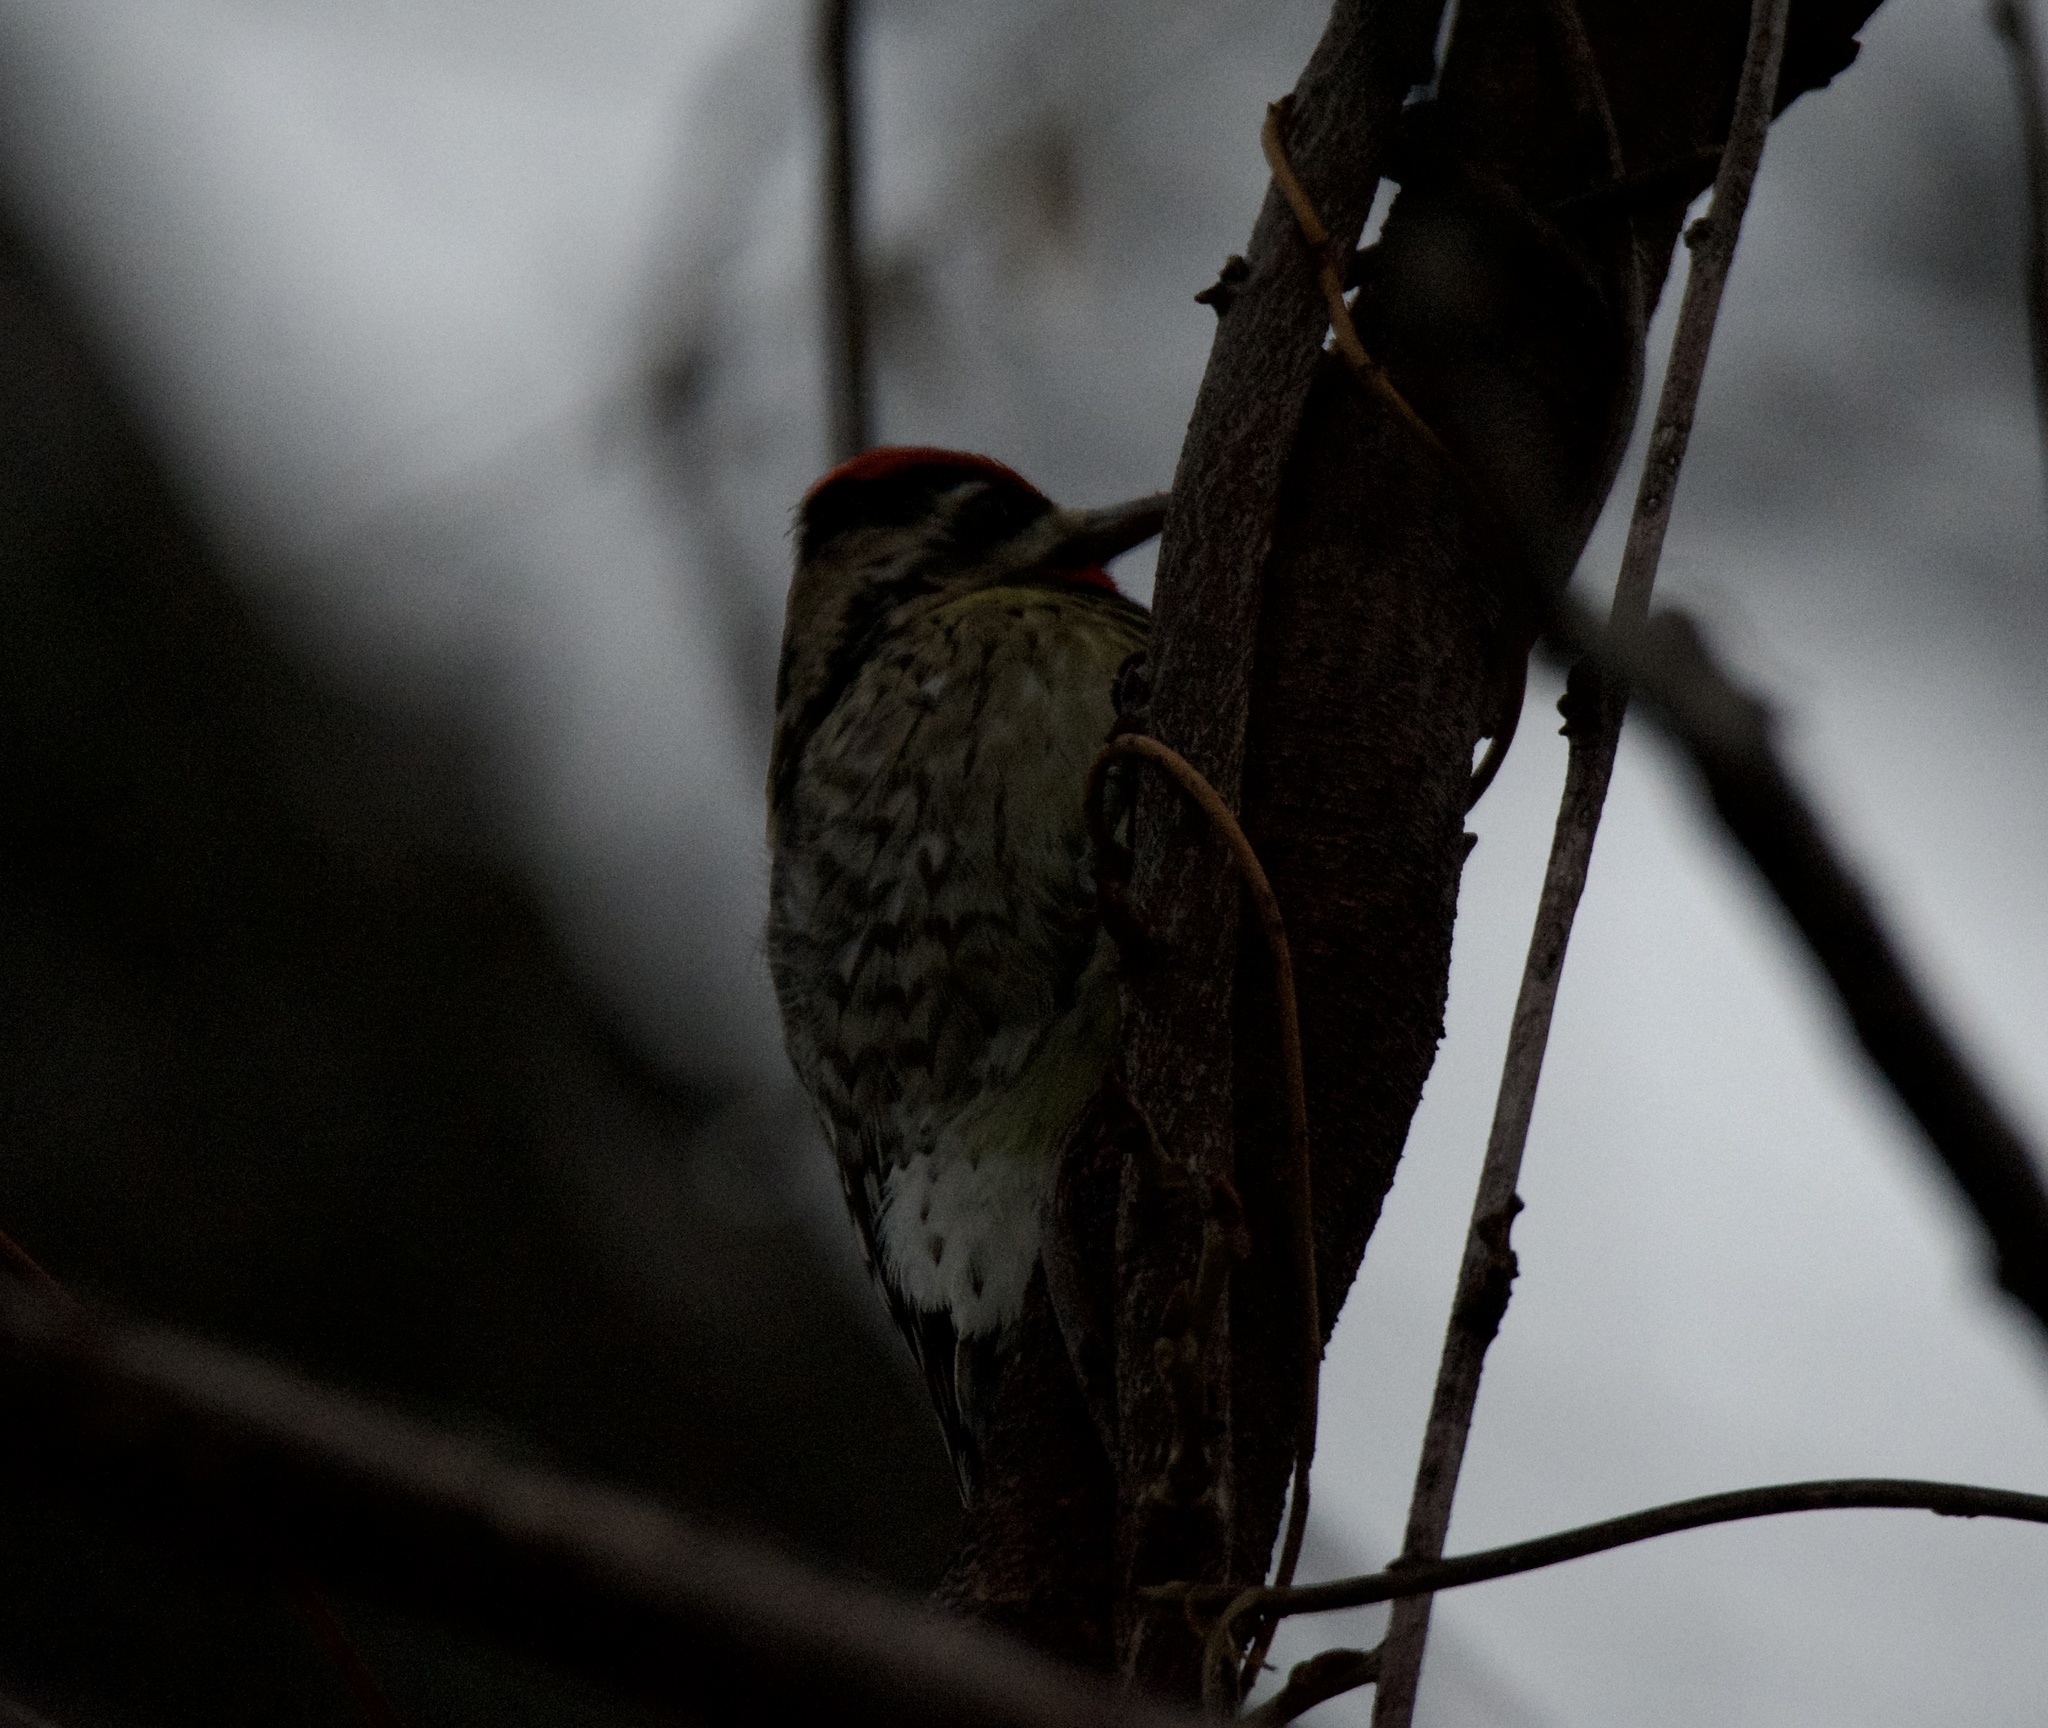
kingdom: Animalia
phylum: Chordata
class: Aves
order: Piciformes
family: Picidae
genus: Sphyrapicus
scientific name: Sphyrapicus varius
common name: Yellow-bellied sapsucker
